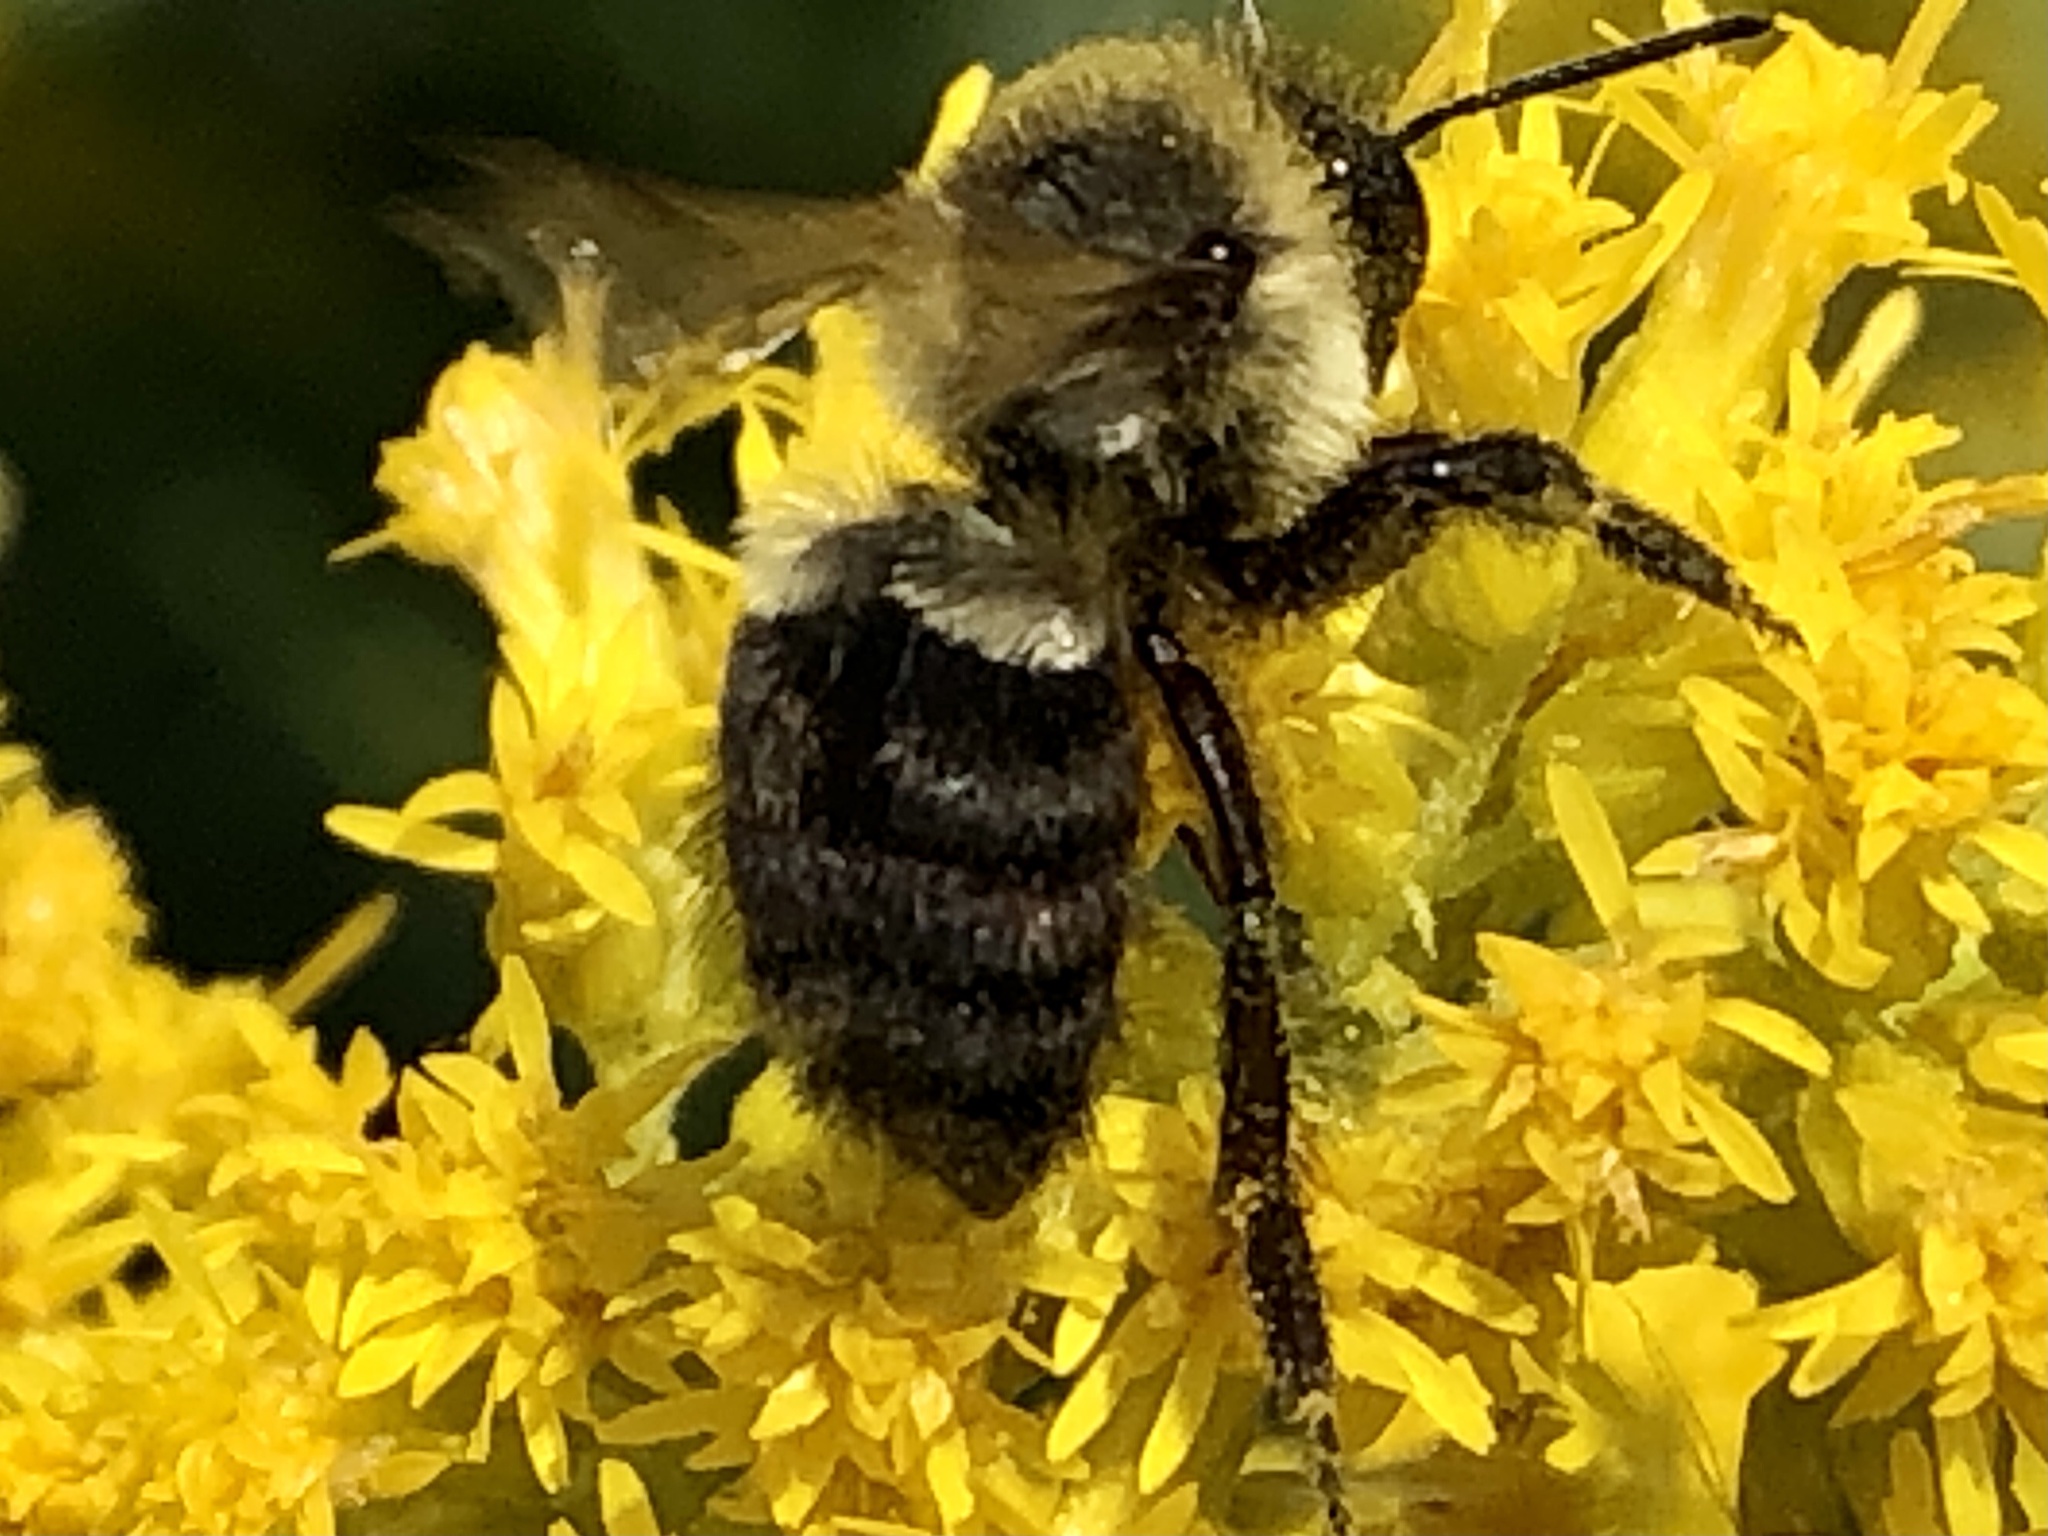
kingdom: Animalia
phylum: Arthropoda
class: Insecta
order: Hymenoptera
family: Apidae
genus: Bombus
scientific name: Bombus impatiens
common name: Common eastern bumble bee
